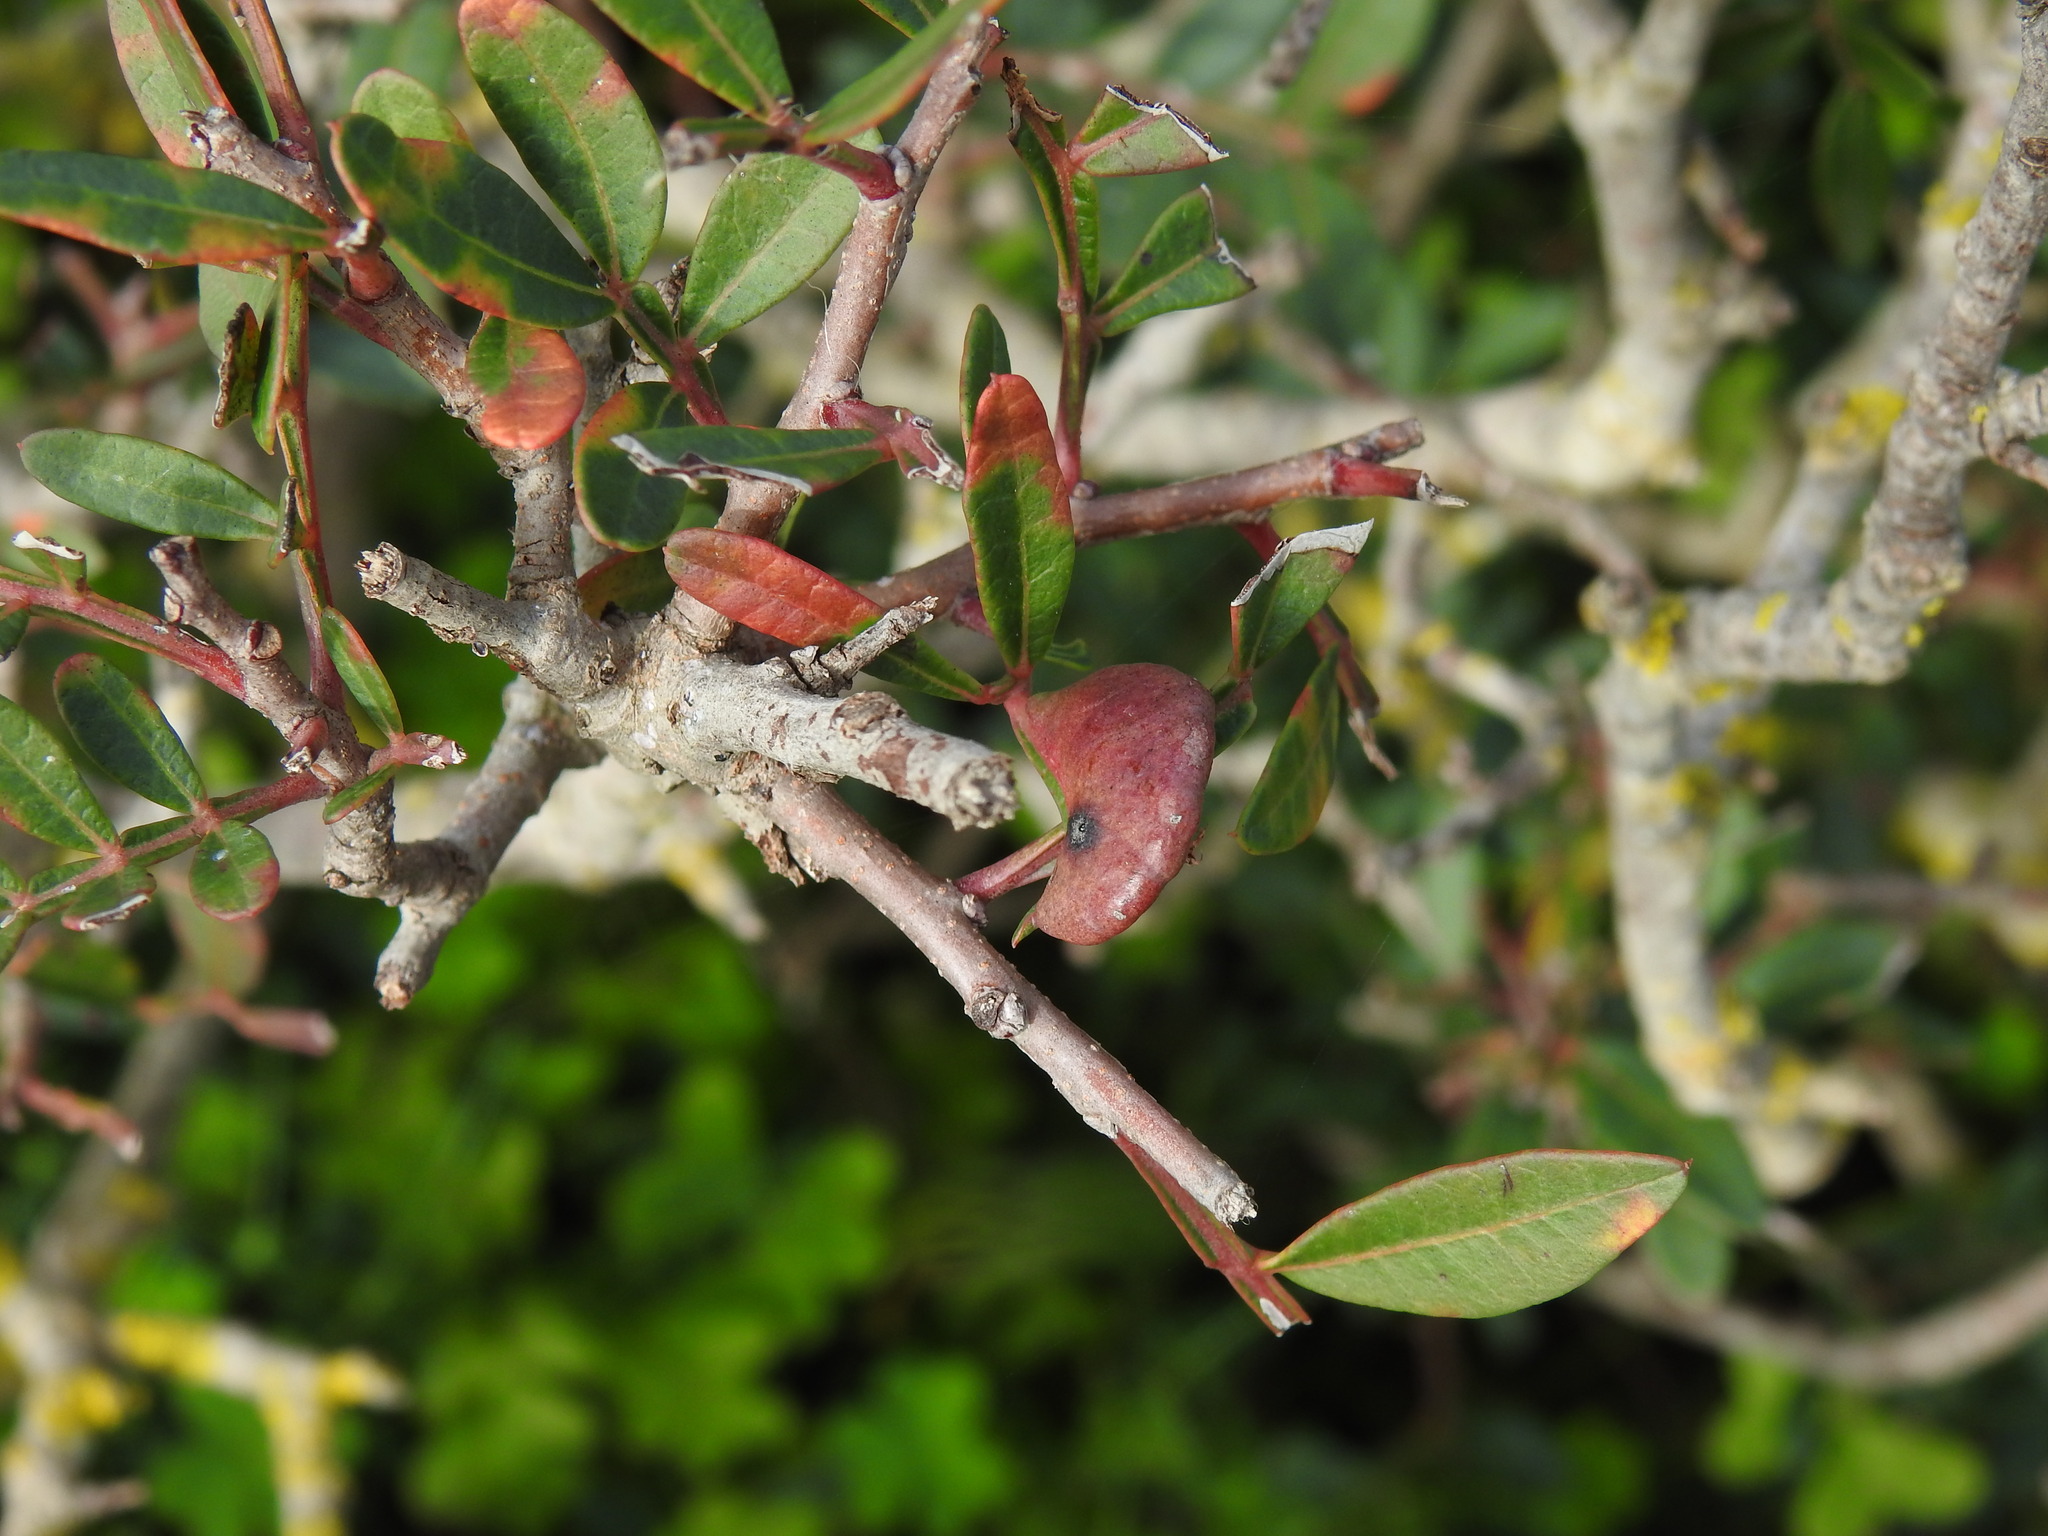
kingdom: Animalia
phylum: Arthropoda
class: Insecta
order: Hemiptera
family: Aphididae
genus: Aploneura
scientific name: Aploneura lentisci
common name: Mealy grass root aphid
